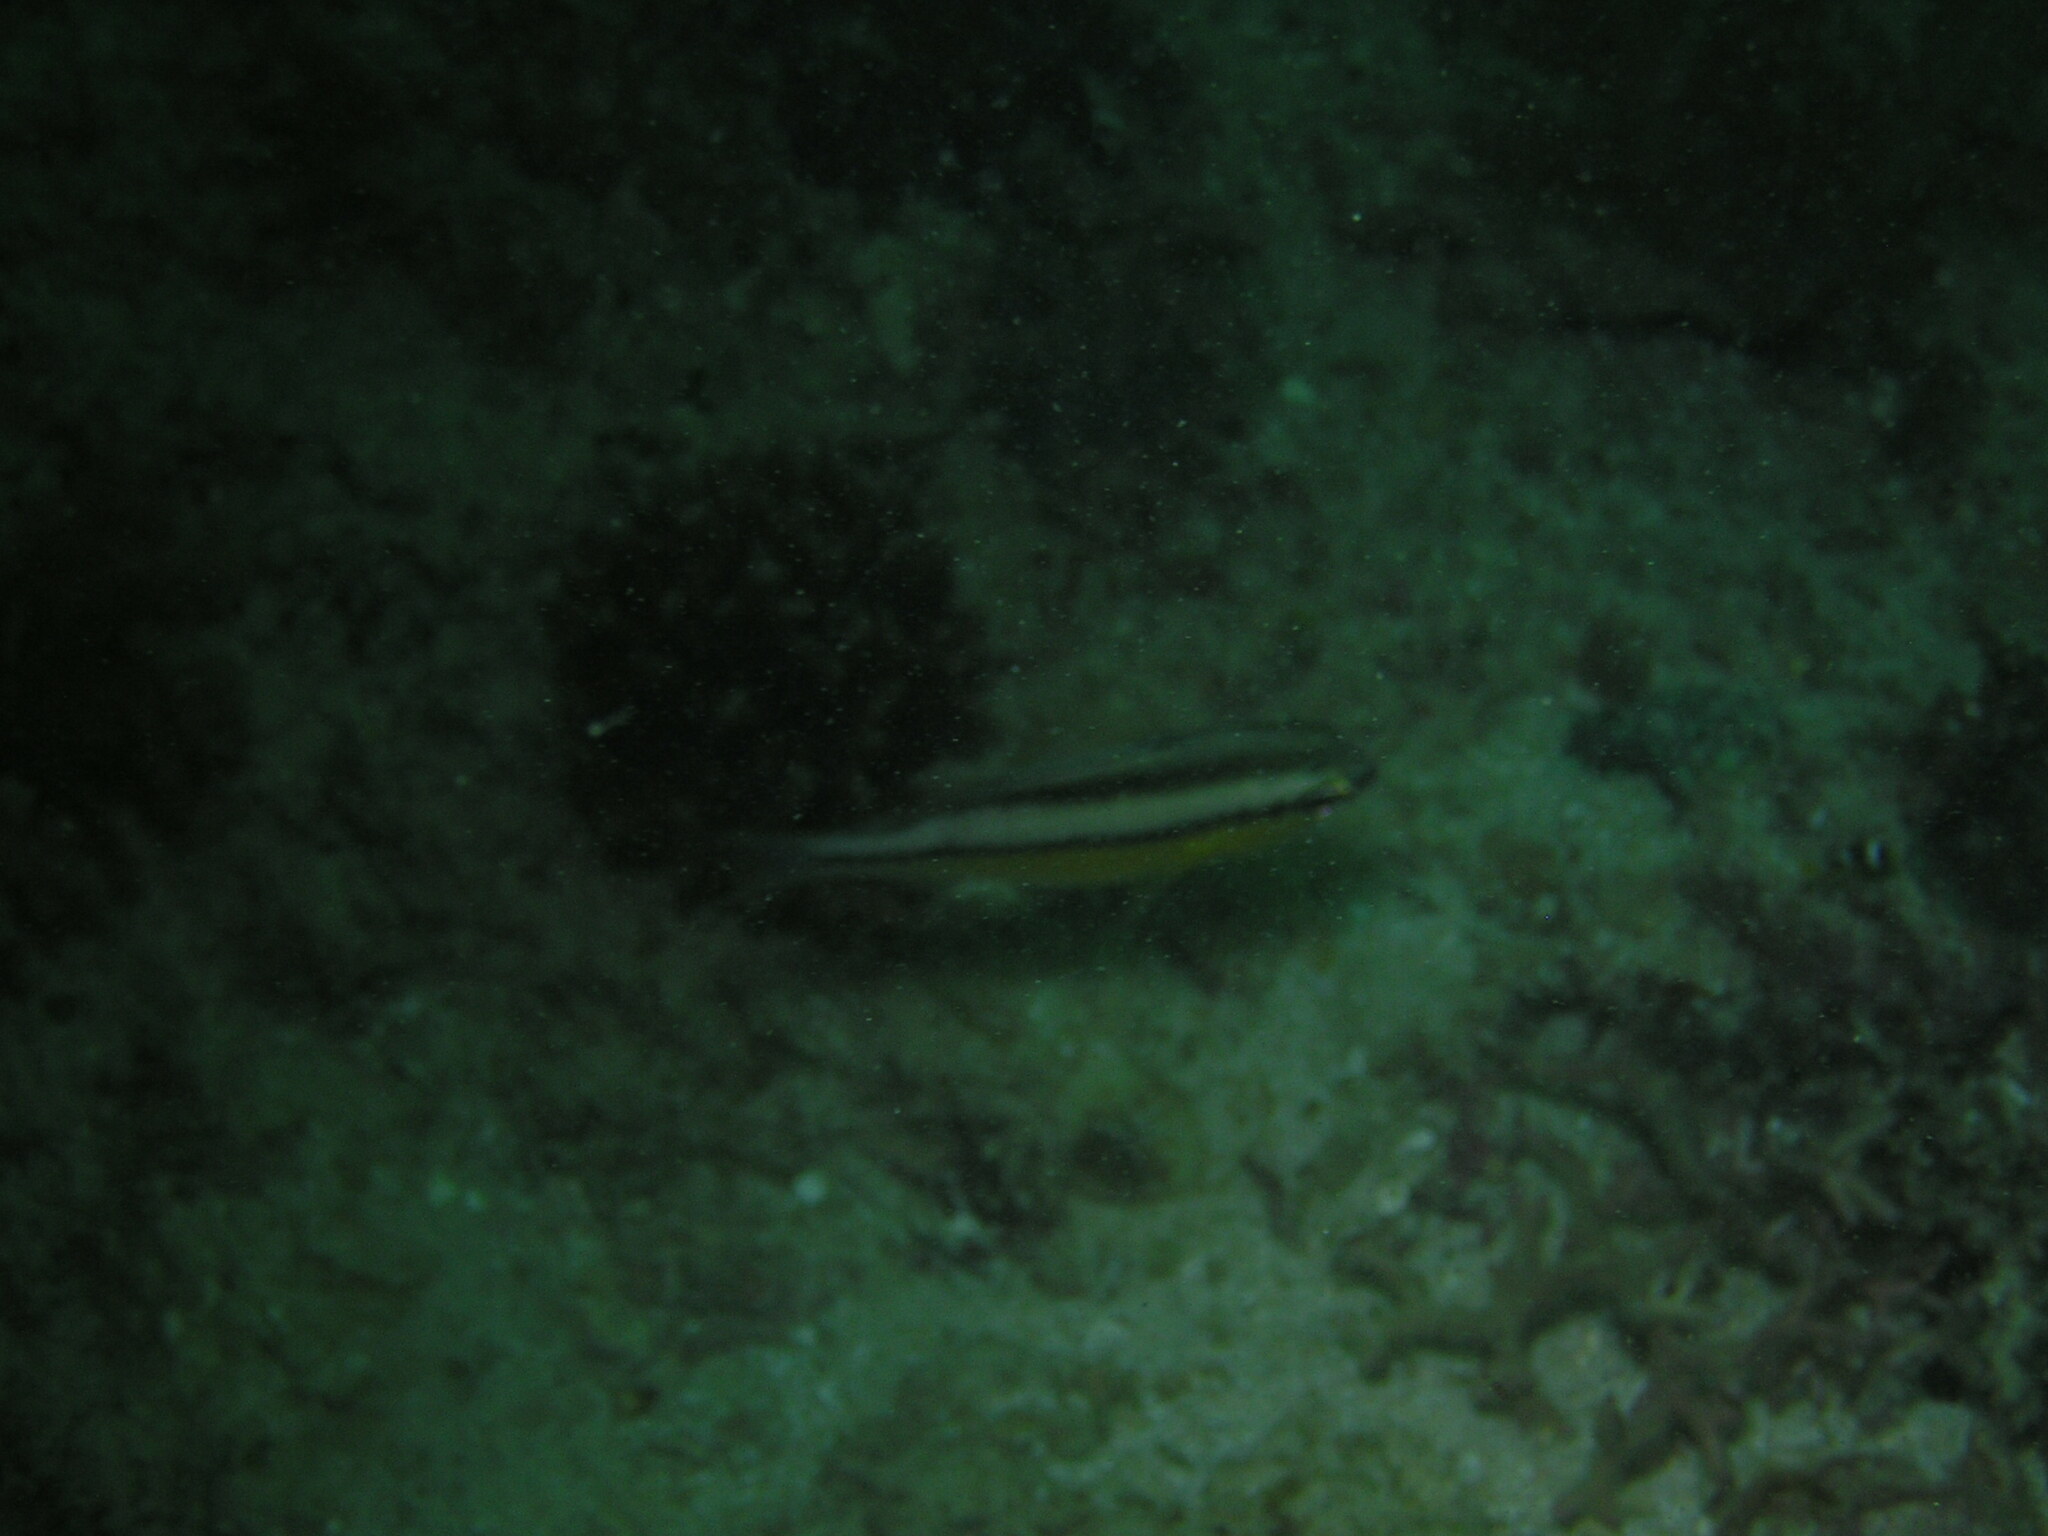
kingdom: Animalia
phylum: Chordata
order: Perciformes
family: Nemipteridae
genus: Scolopsis
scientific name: Scolopsis margaritifera
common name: Pearly monocle bream
